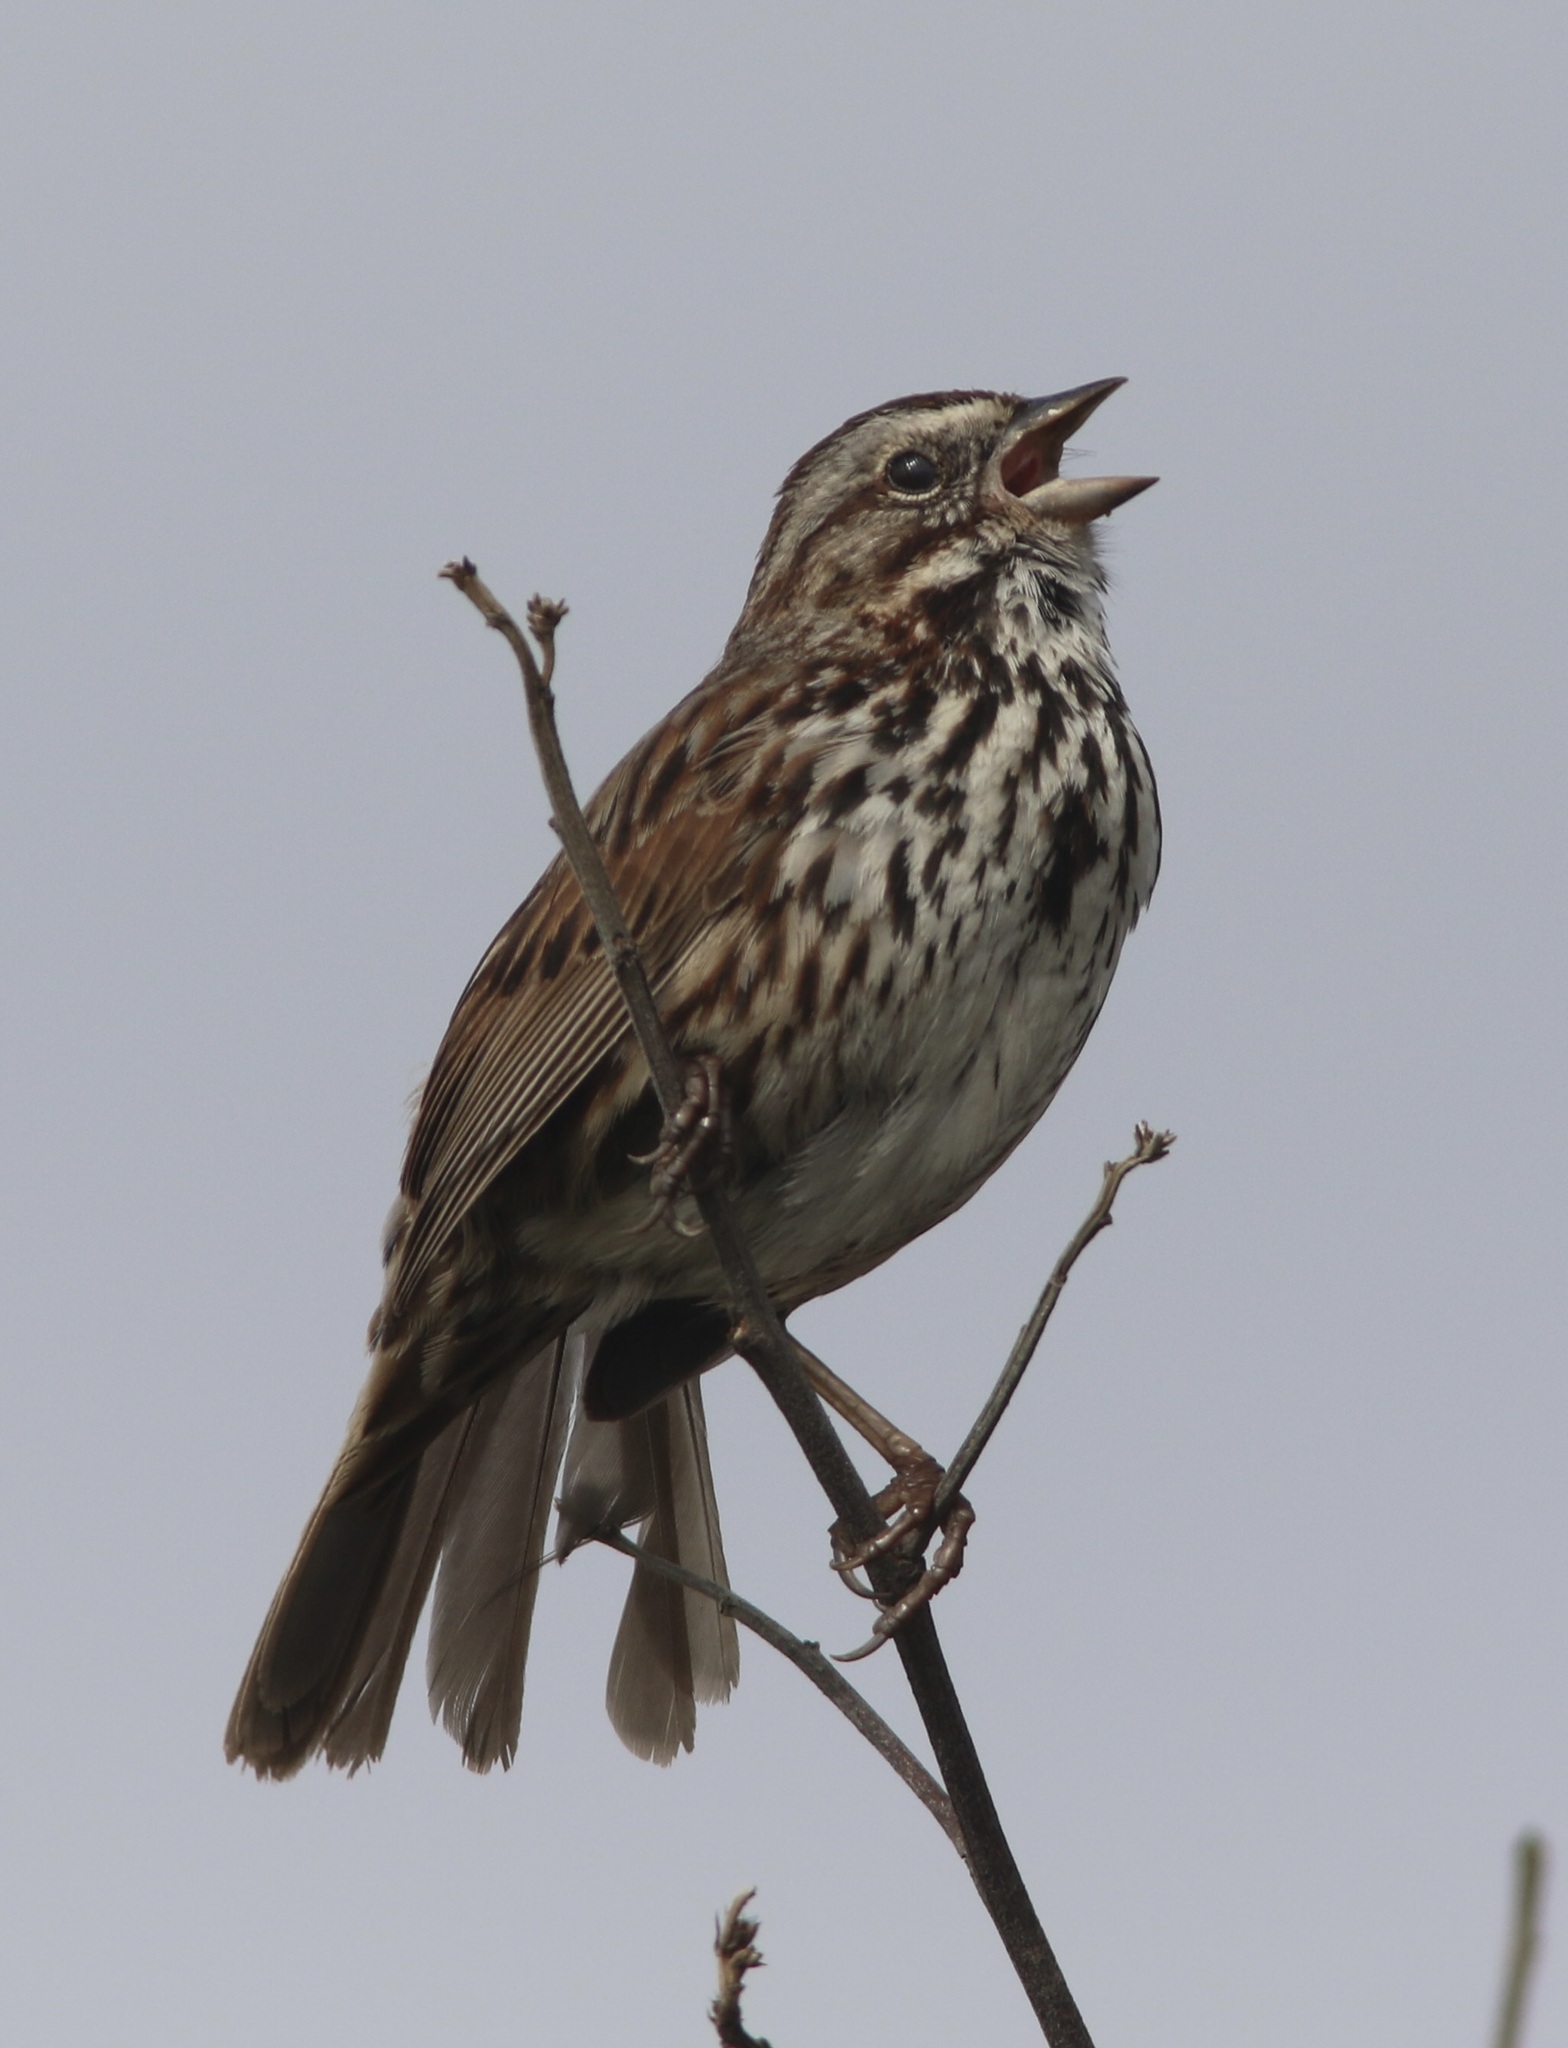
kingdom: Animalia
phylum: Chordata
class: Aves
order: Passeriformes
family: Passerellidae
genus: Melospiza
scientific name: Melospiza melodia
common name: Song sparrow
